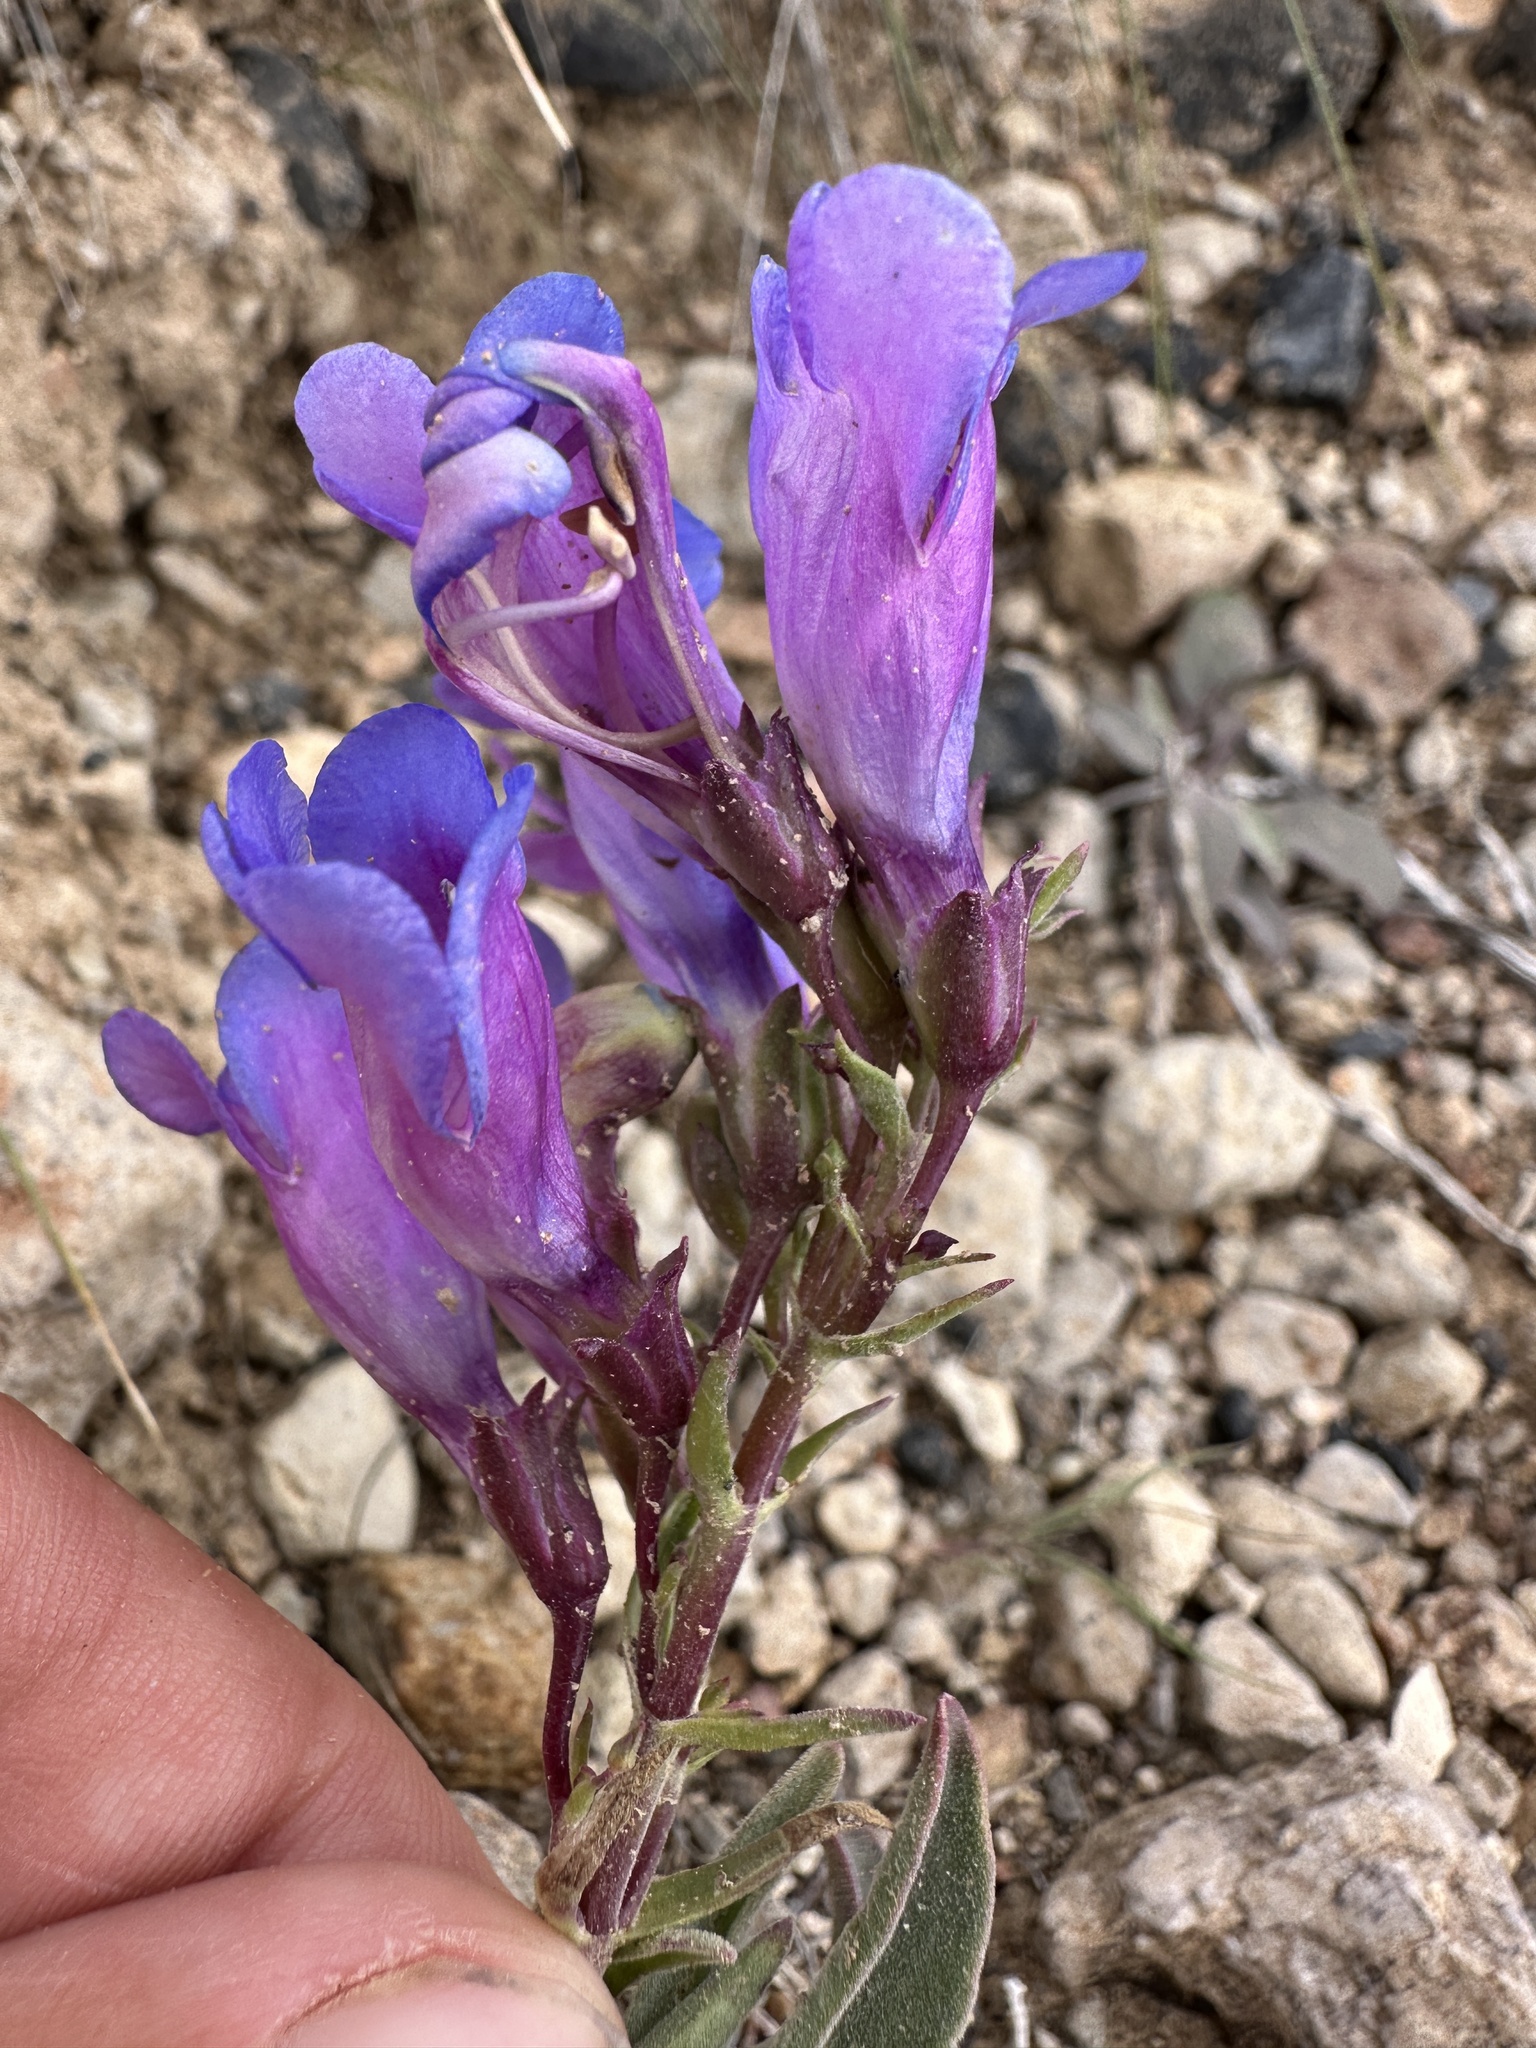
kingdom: Plantae
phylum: Tracheophyta
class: Magnoliopsida
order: Lamiales
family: Plantaginaceae
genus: Penstemon
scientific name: Penstemon speciosus
